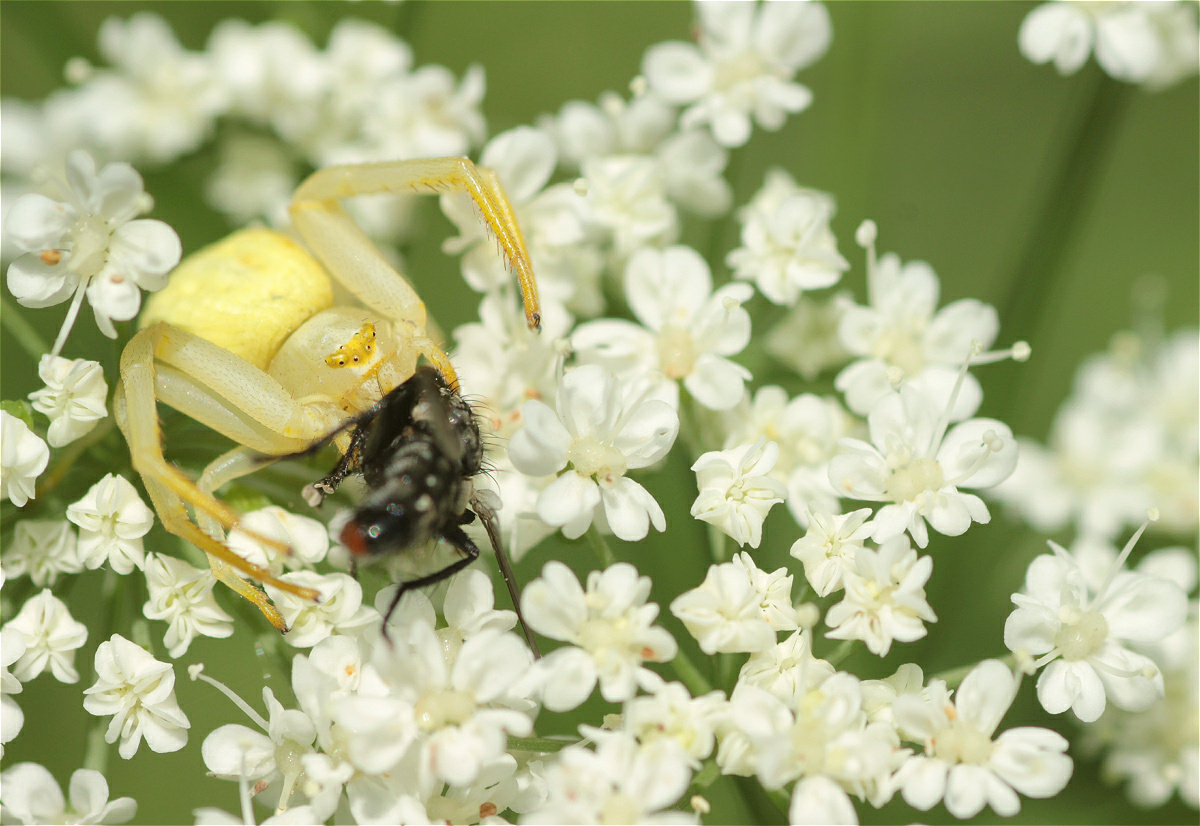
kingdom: Animalia
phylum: Arthropoda
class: Arachnida
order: Araneae
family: Thomisidae
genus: Misumena
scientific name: Misumena vatia
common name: Goldenrod crab spider
